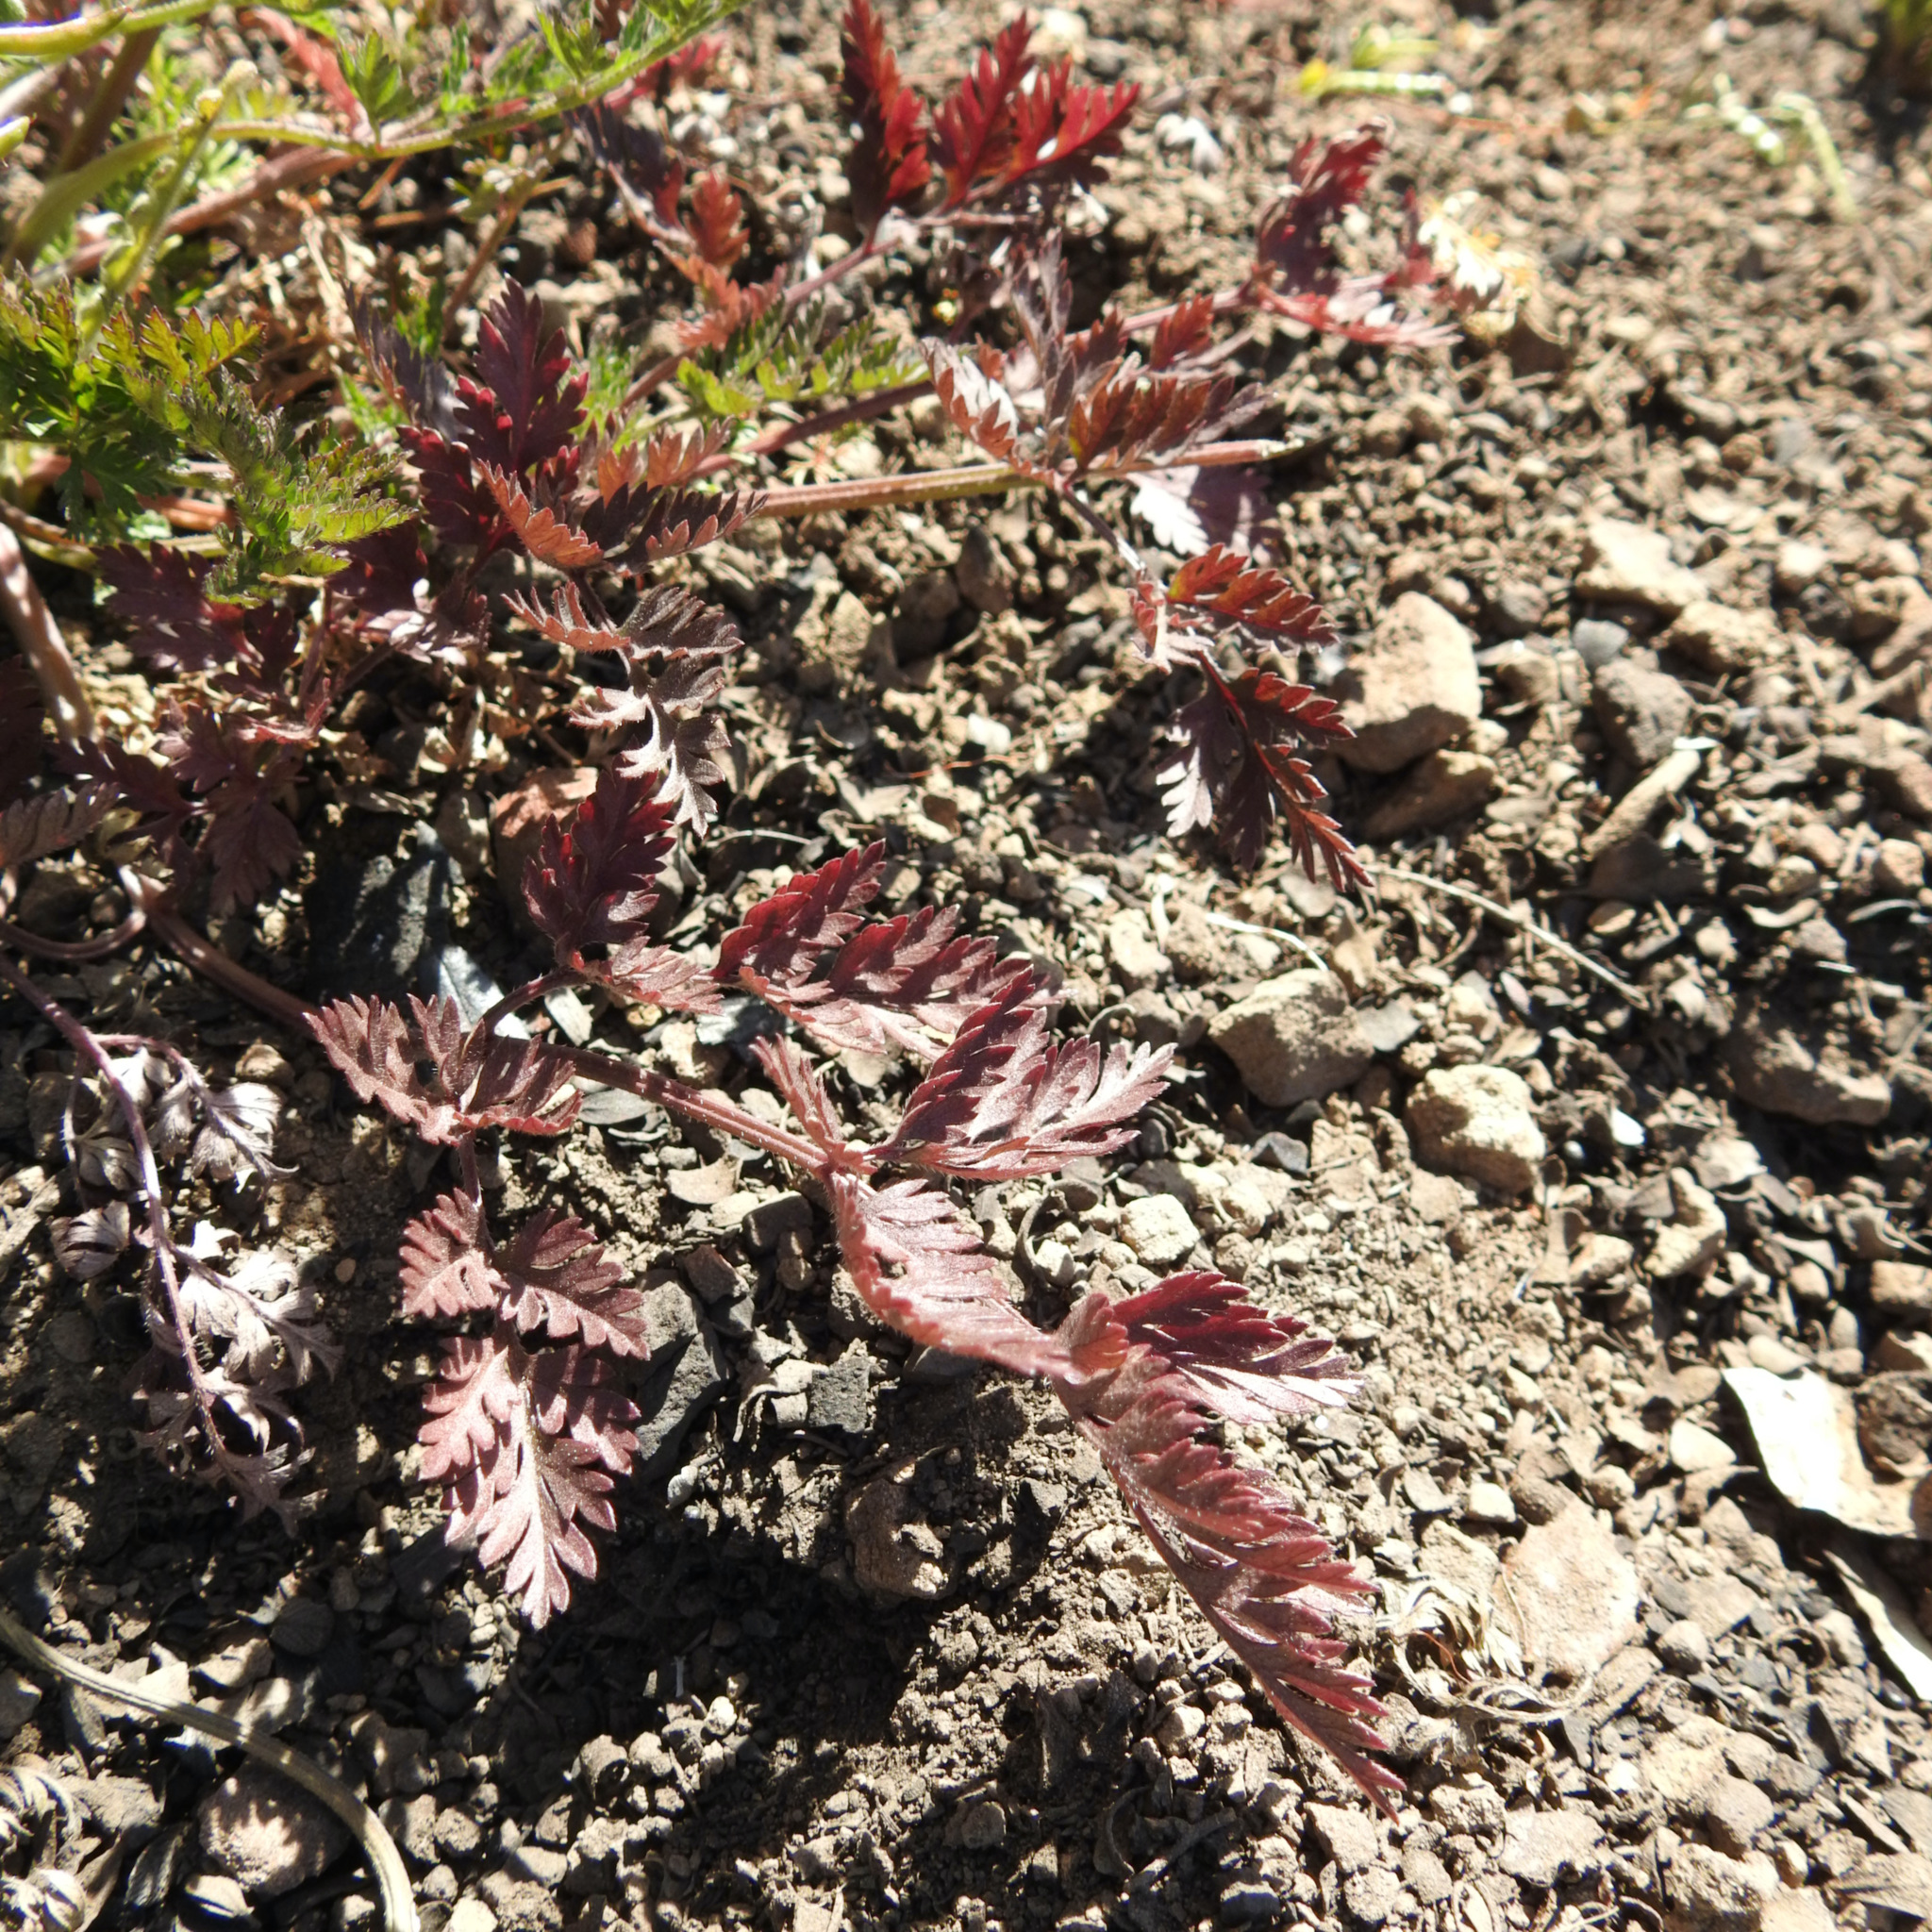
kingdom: Plantae
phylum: Tracheophyta
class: Magnoliopsida
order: Geraniales
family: Geraniaceae
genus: Erodium
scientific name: Erodium cicutarium
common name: Common stork's-bill
